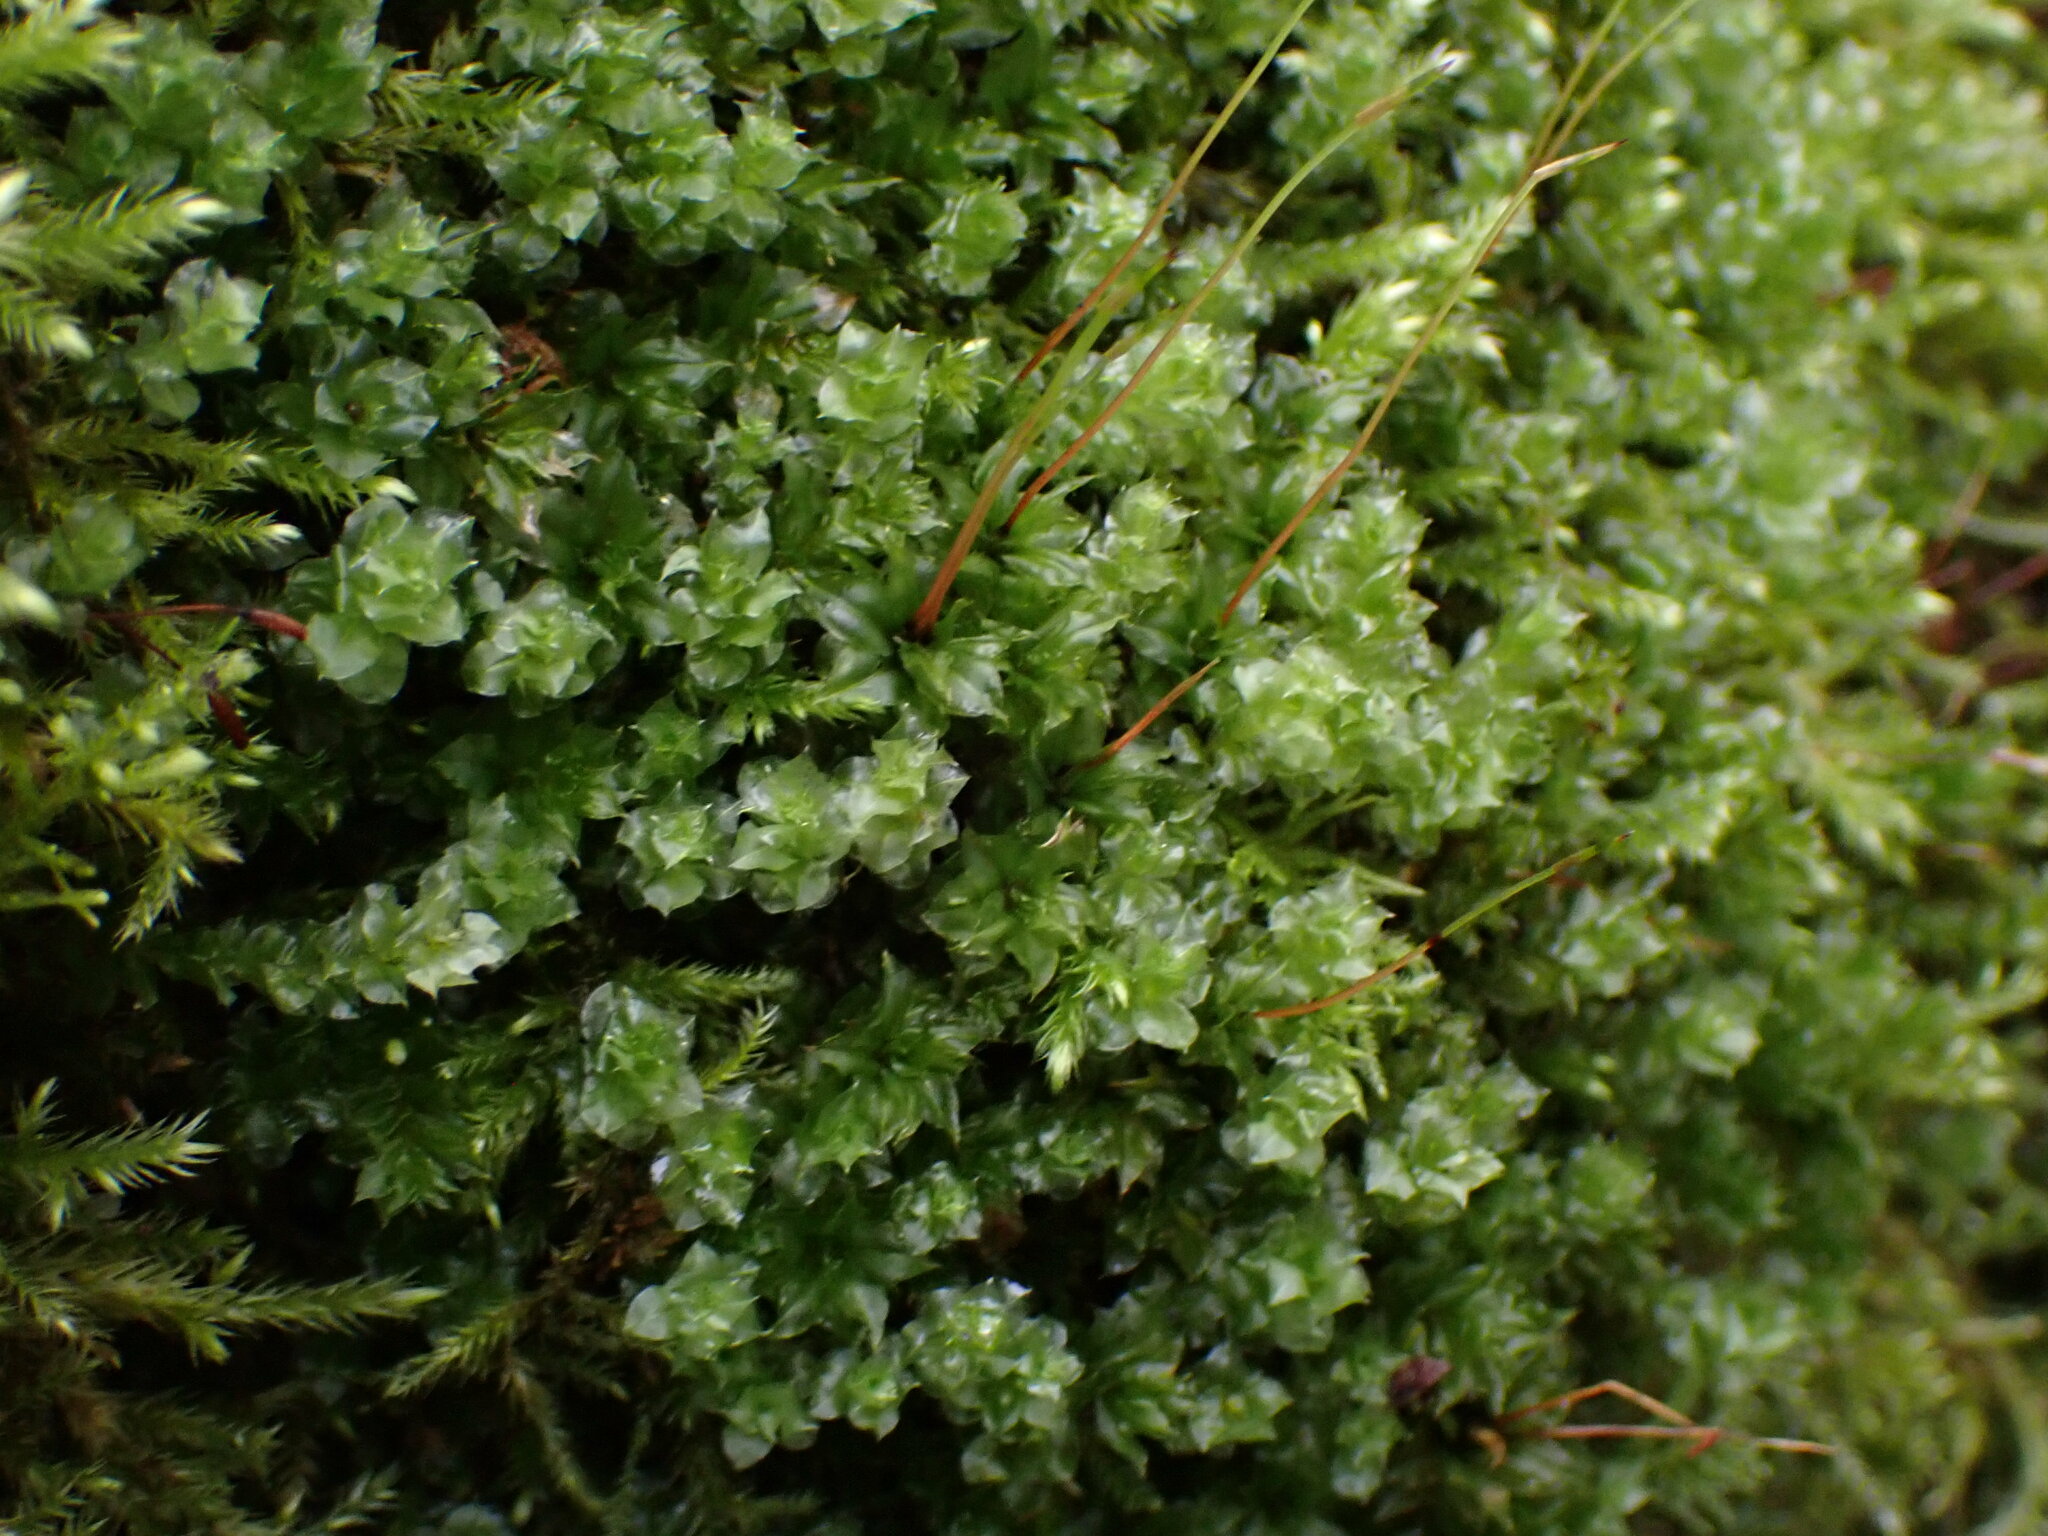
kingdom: Plantae
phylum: Bryophyta
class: Bryopsida
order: Bryales
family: Mniaceae
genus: Plagiomnium
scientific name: Plagiomnium venustum
